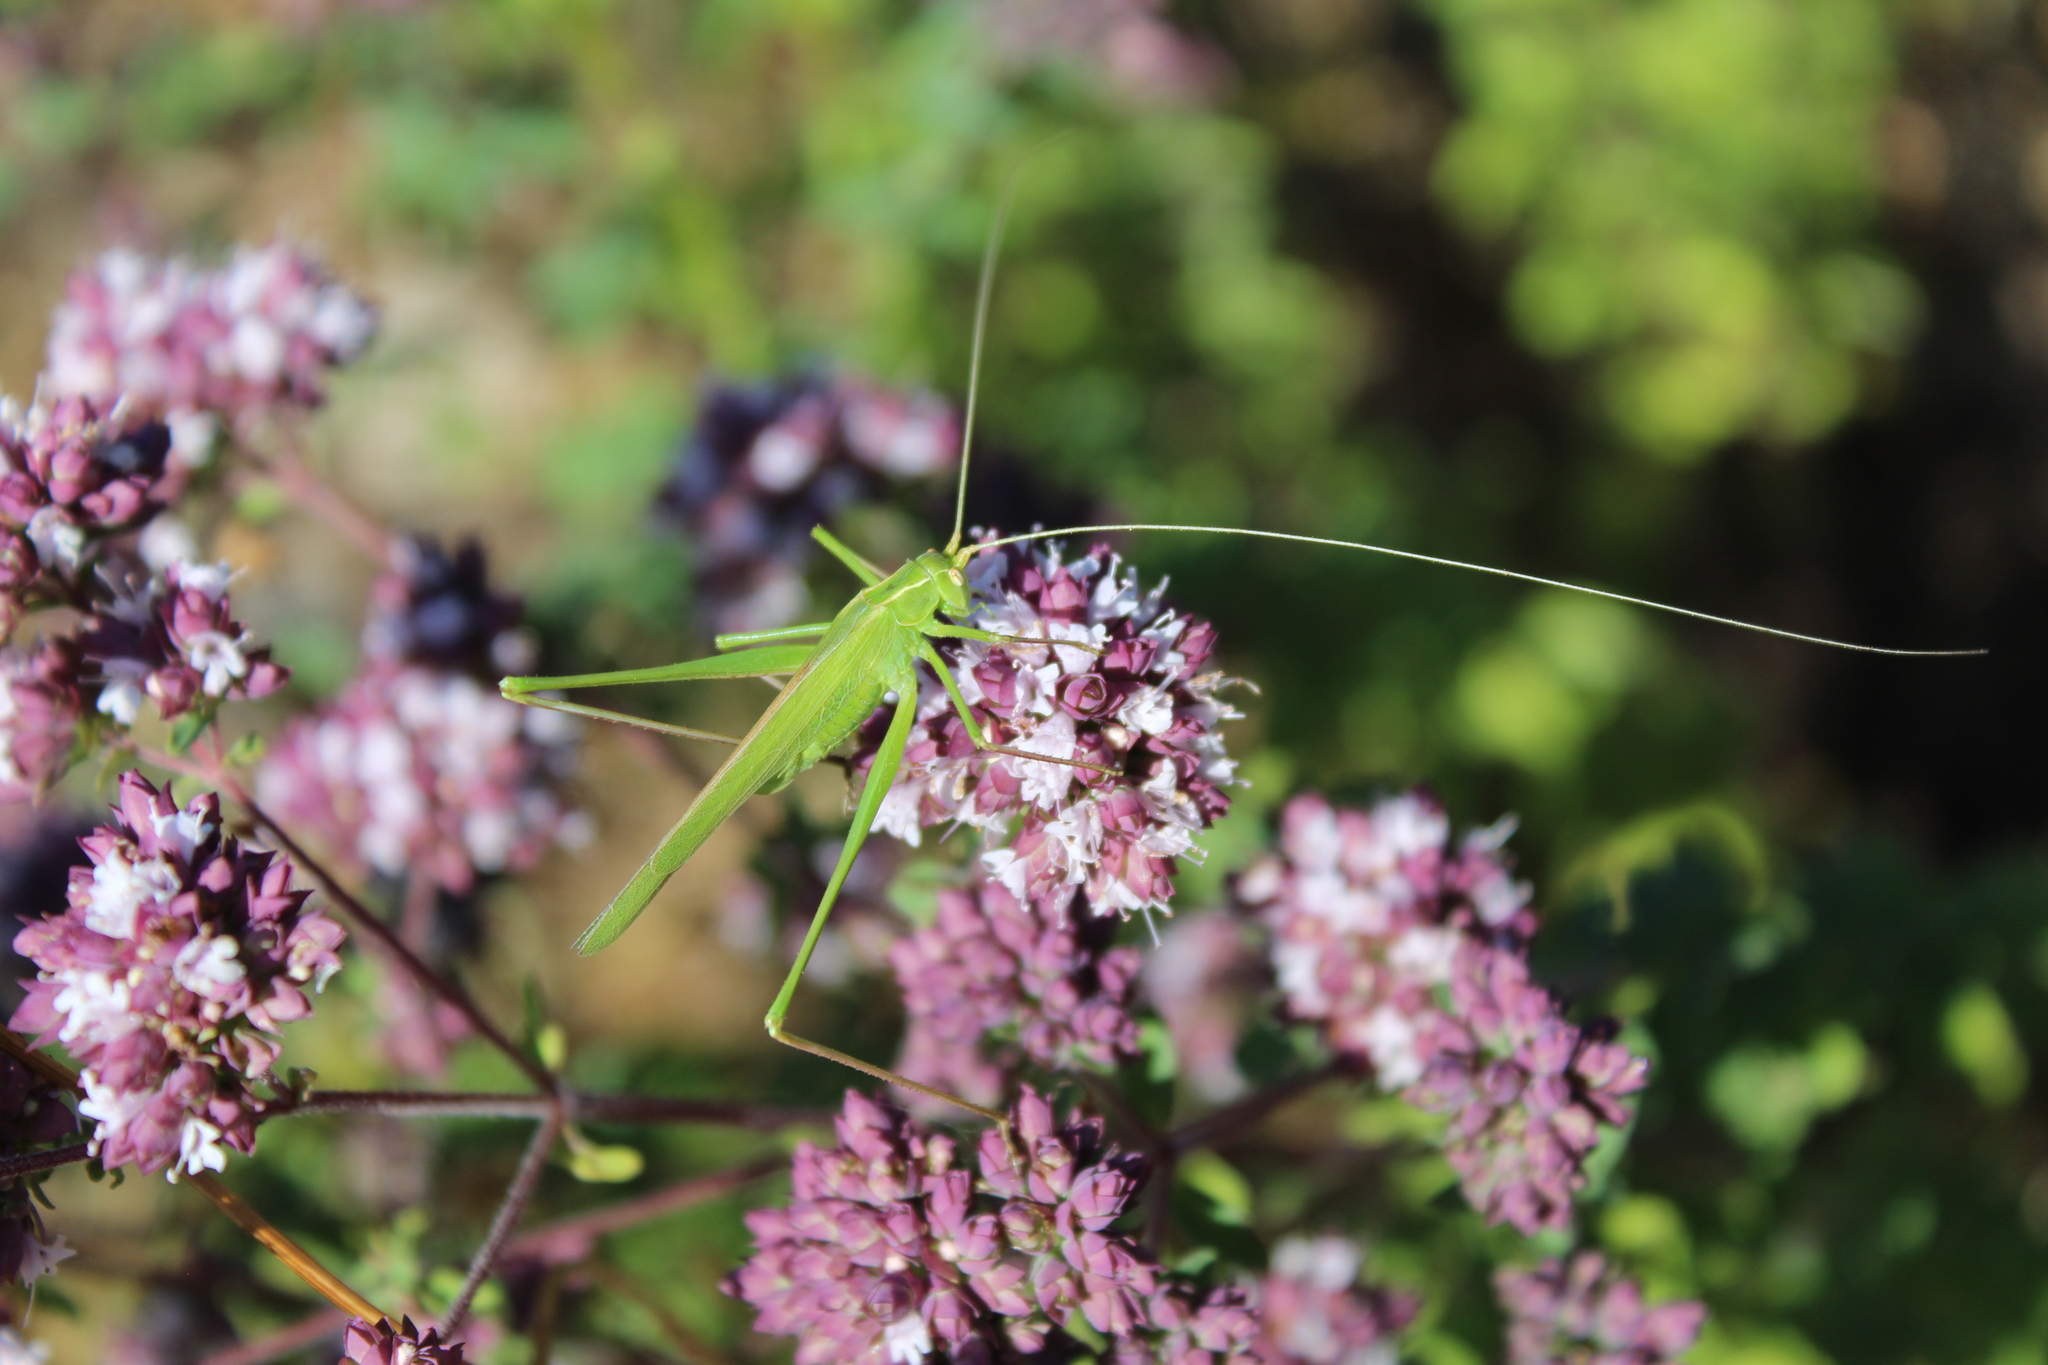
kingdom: Animalia
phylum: Arthropoda
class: Insecta
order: Orthoptera
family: Tettigoniidae
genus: Tylopsis
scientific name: Tylopsis lilifolia
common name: Lily bush-cricket
